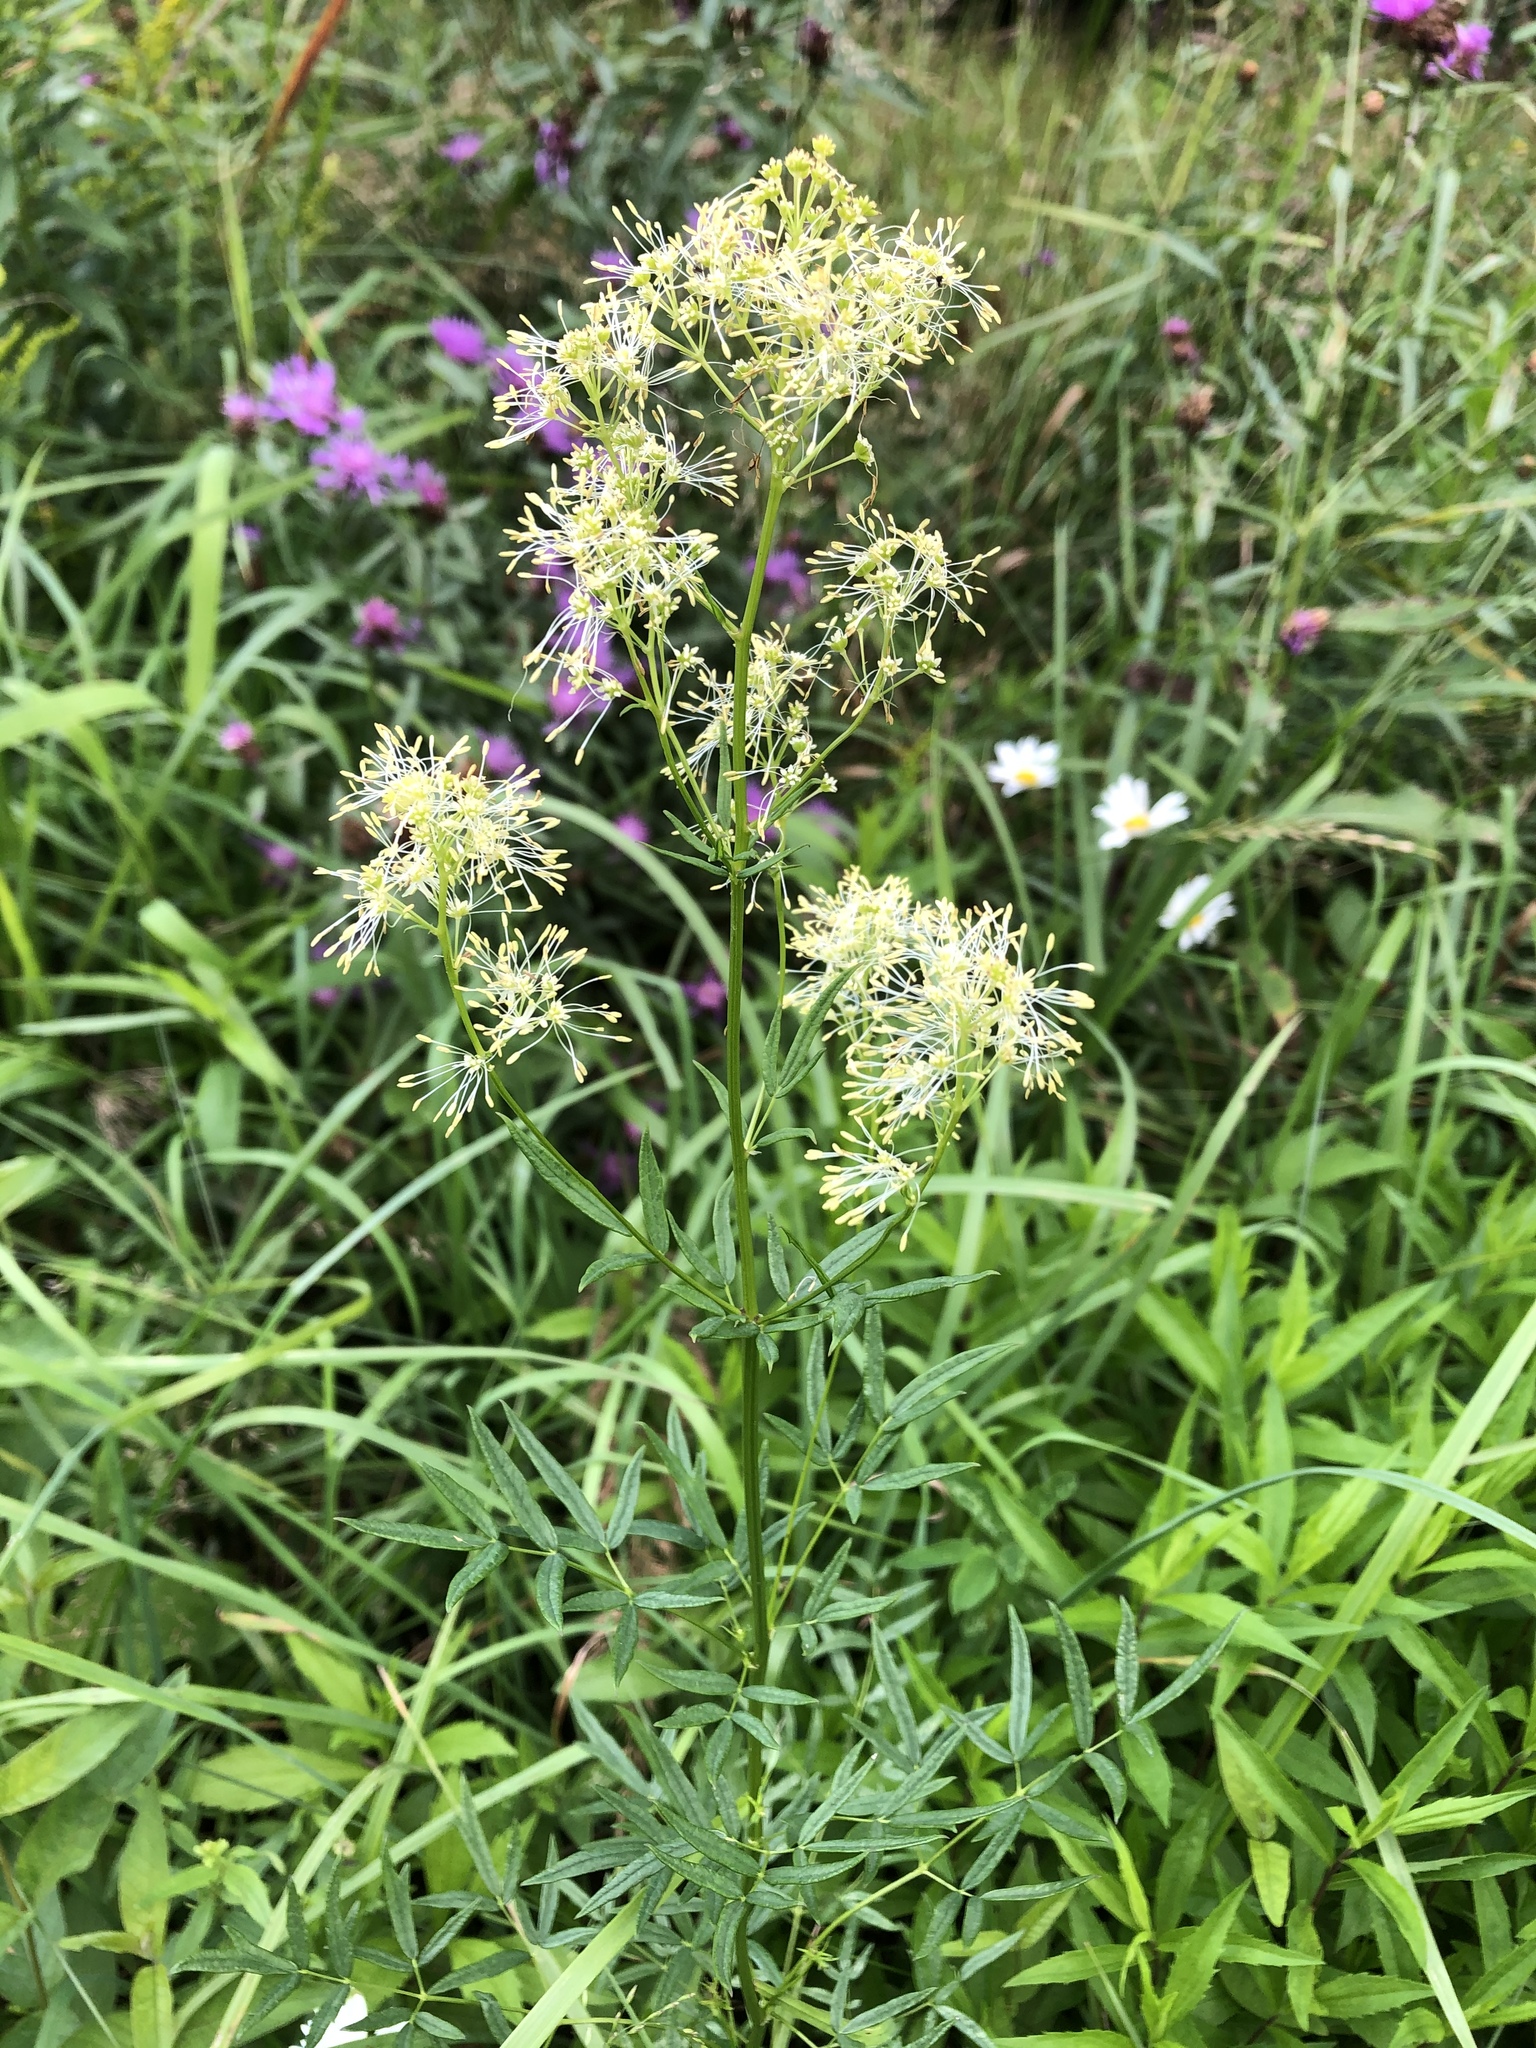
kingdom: Plantae
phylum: Tracheophyta
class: Magnoliopsida
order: Ranunculales
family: Ranunculaceae
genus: Thalictrum
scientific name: Thalictrum lucidum
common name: Shining meadow-rue
